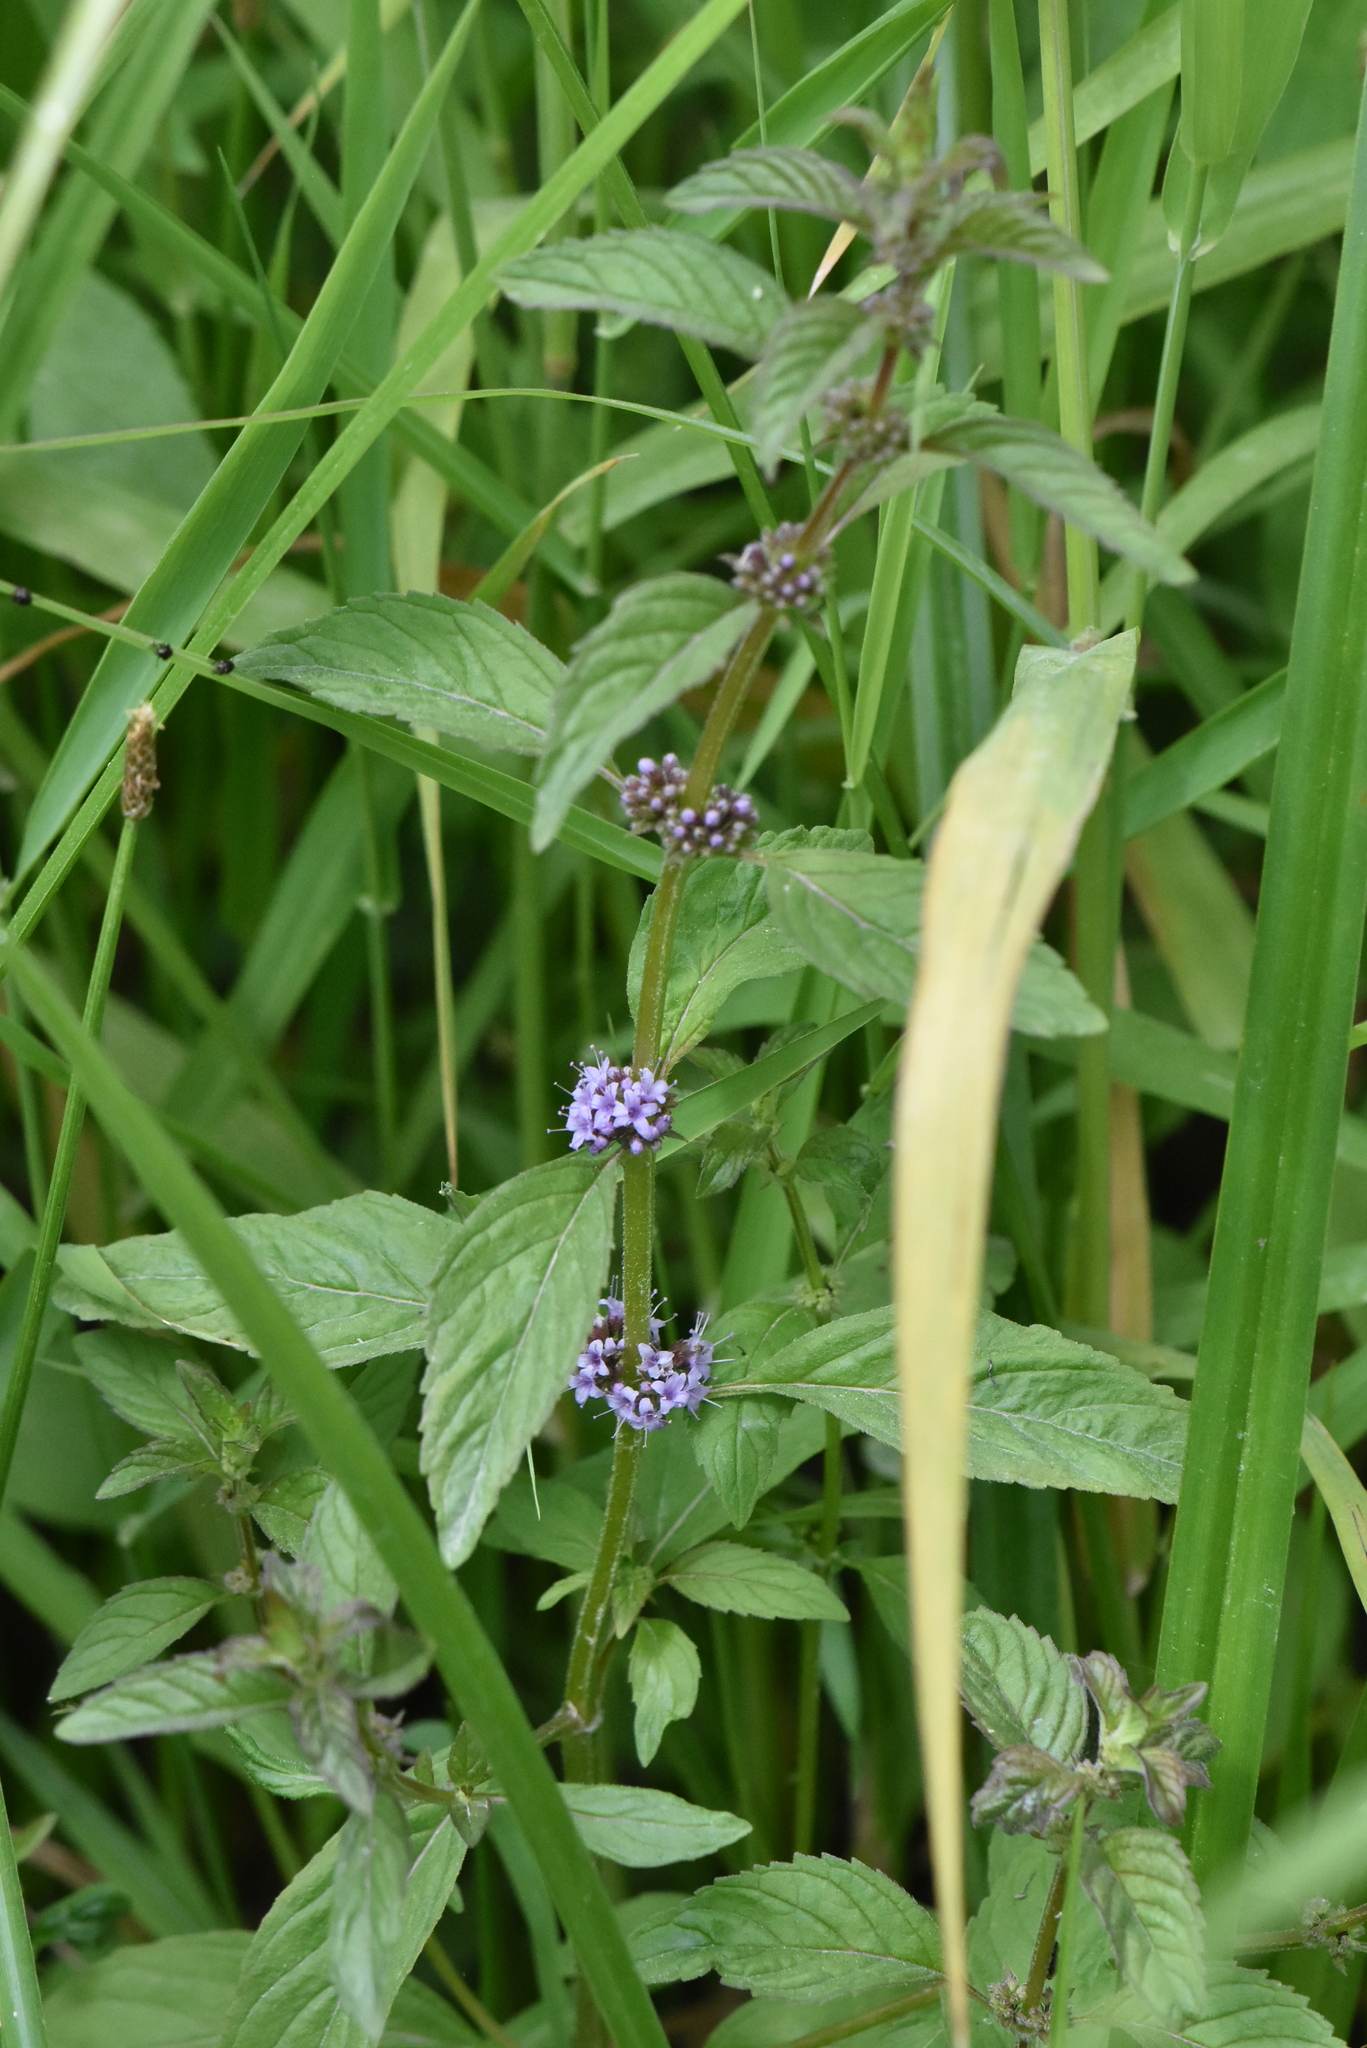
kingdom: Plantae
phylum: Tracheophyta
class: Magnoliopsida
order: Lamiales
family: Lamiaceae
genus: Mentha
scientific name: Mentha arvensis
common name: Corn mint
